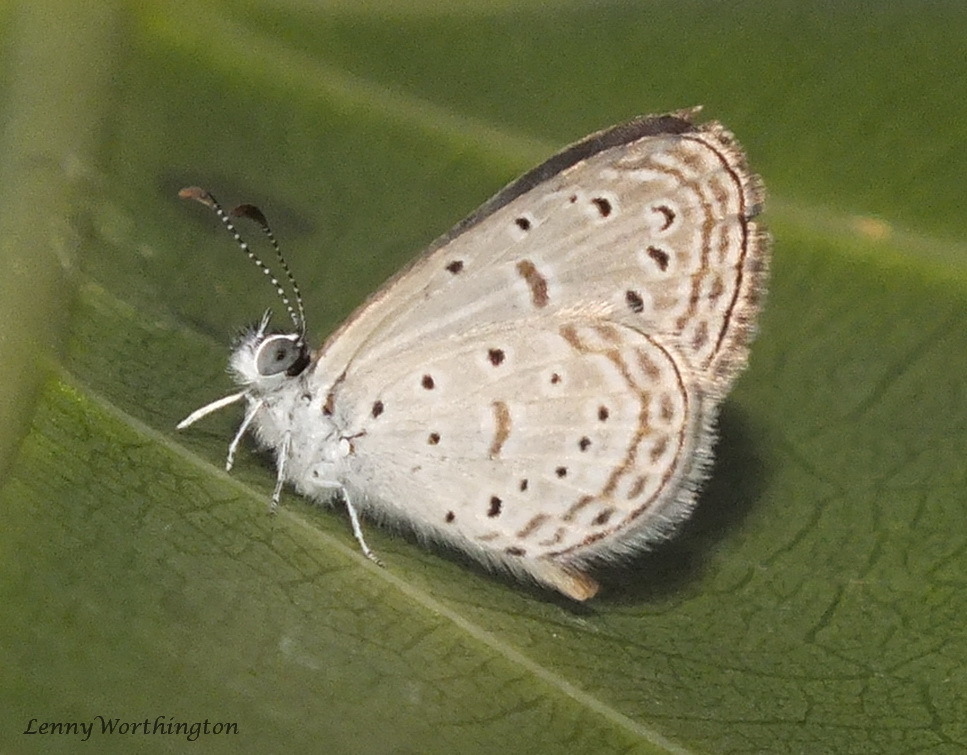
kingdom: Animalia
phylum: Arthropoda
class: Insecta
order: Lepidoptera
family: Lycaenidae
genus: Zizula
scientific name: Zizula hylax
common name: Gaika blue
